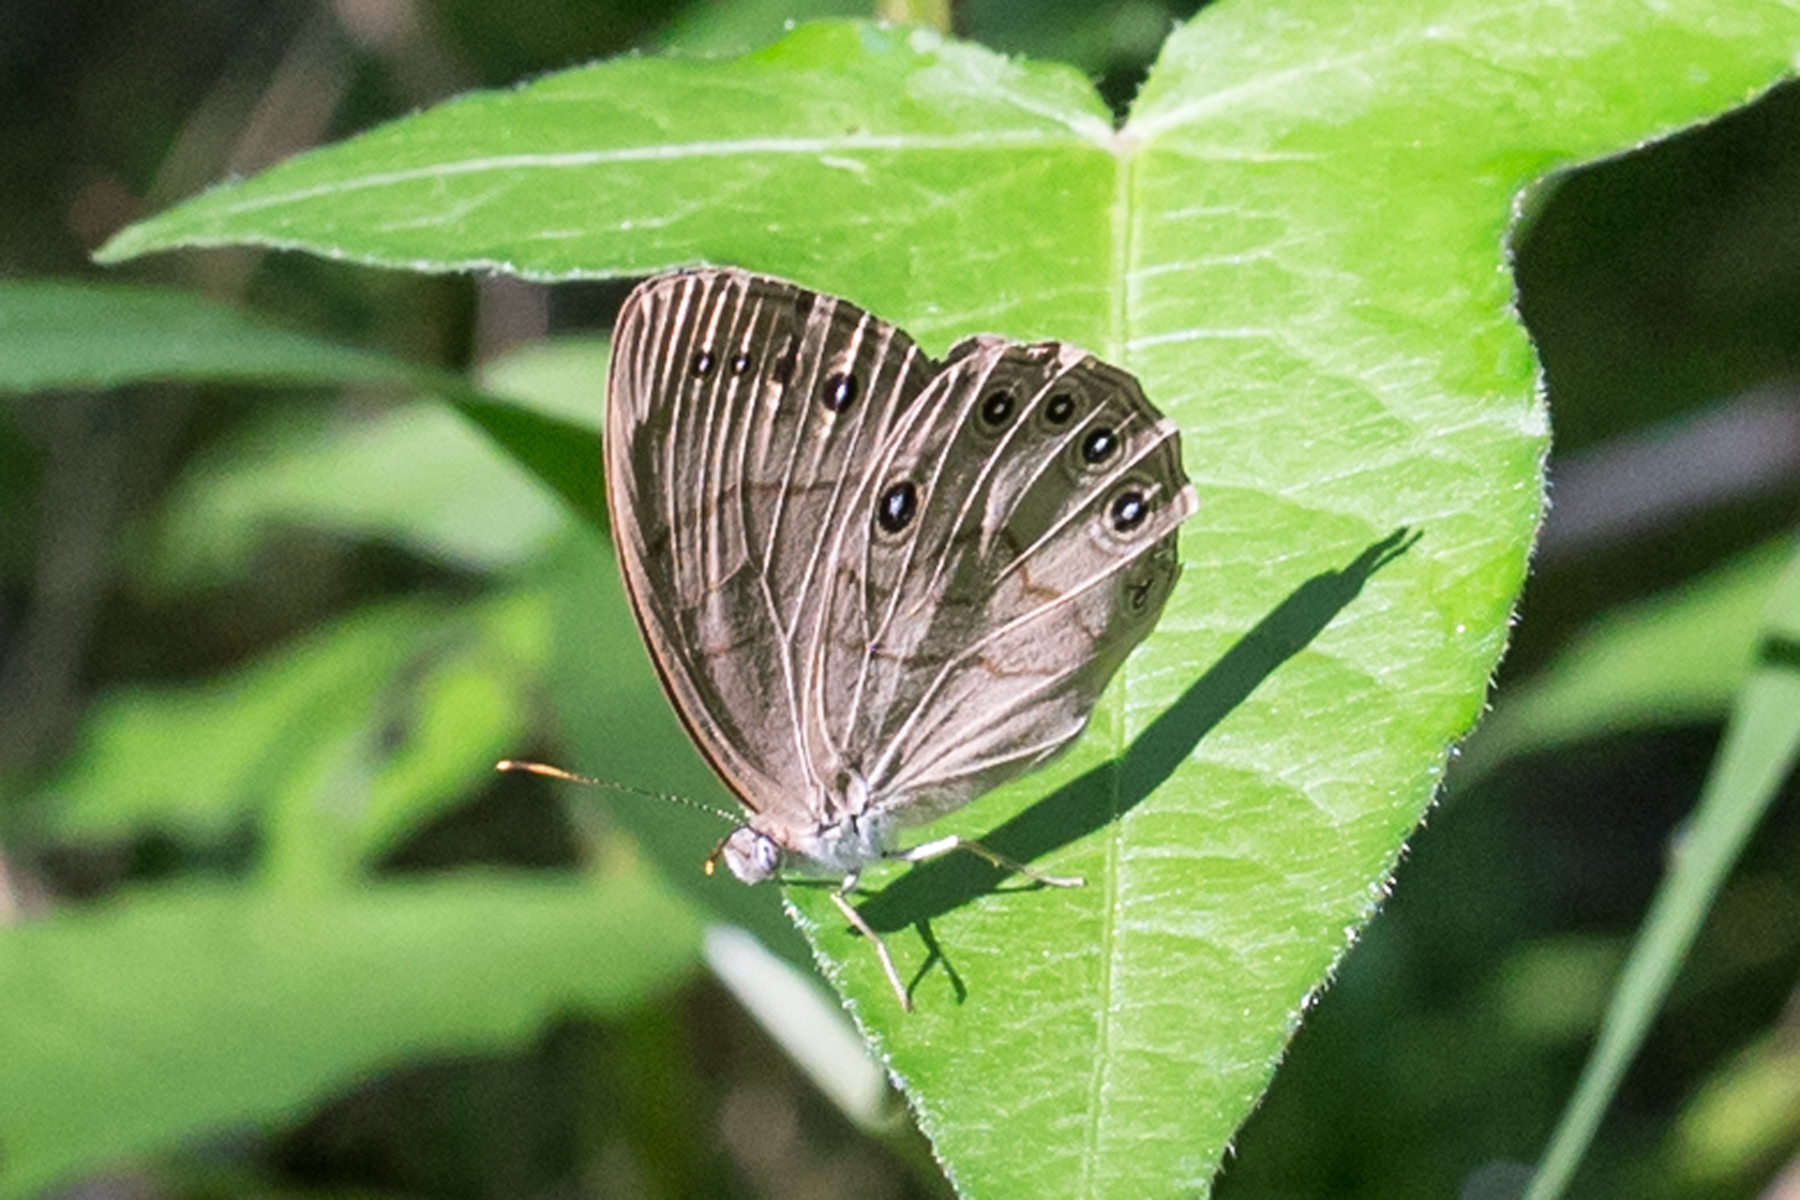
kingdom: Animalia
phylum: Arthropoda
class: Insecta
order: Lepidoptera
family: Nymphalidae
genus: Lethe
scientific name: Lethe eurydice
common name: Eyed brown
